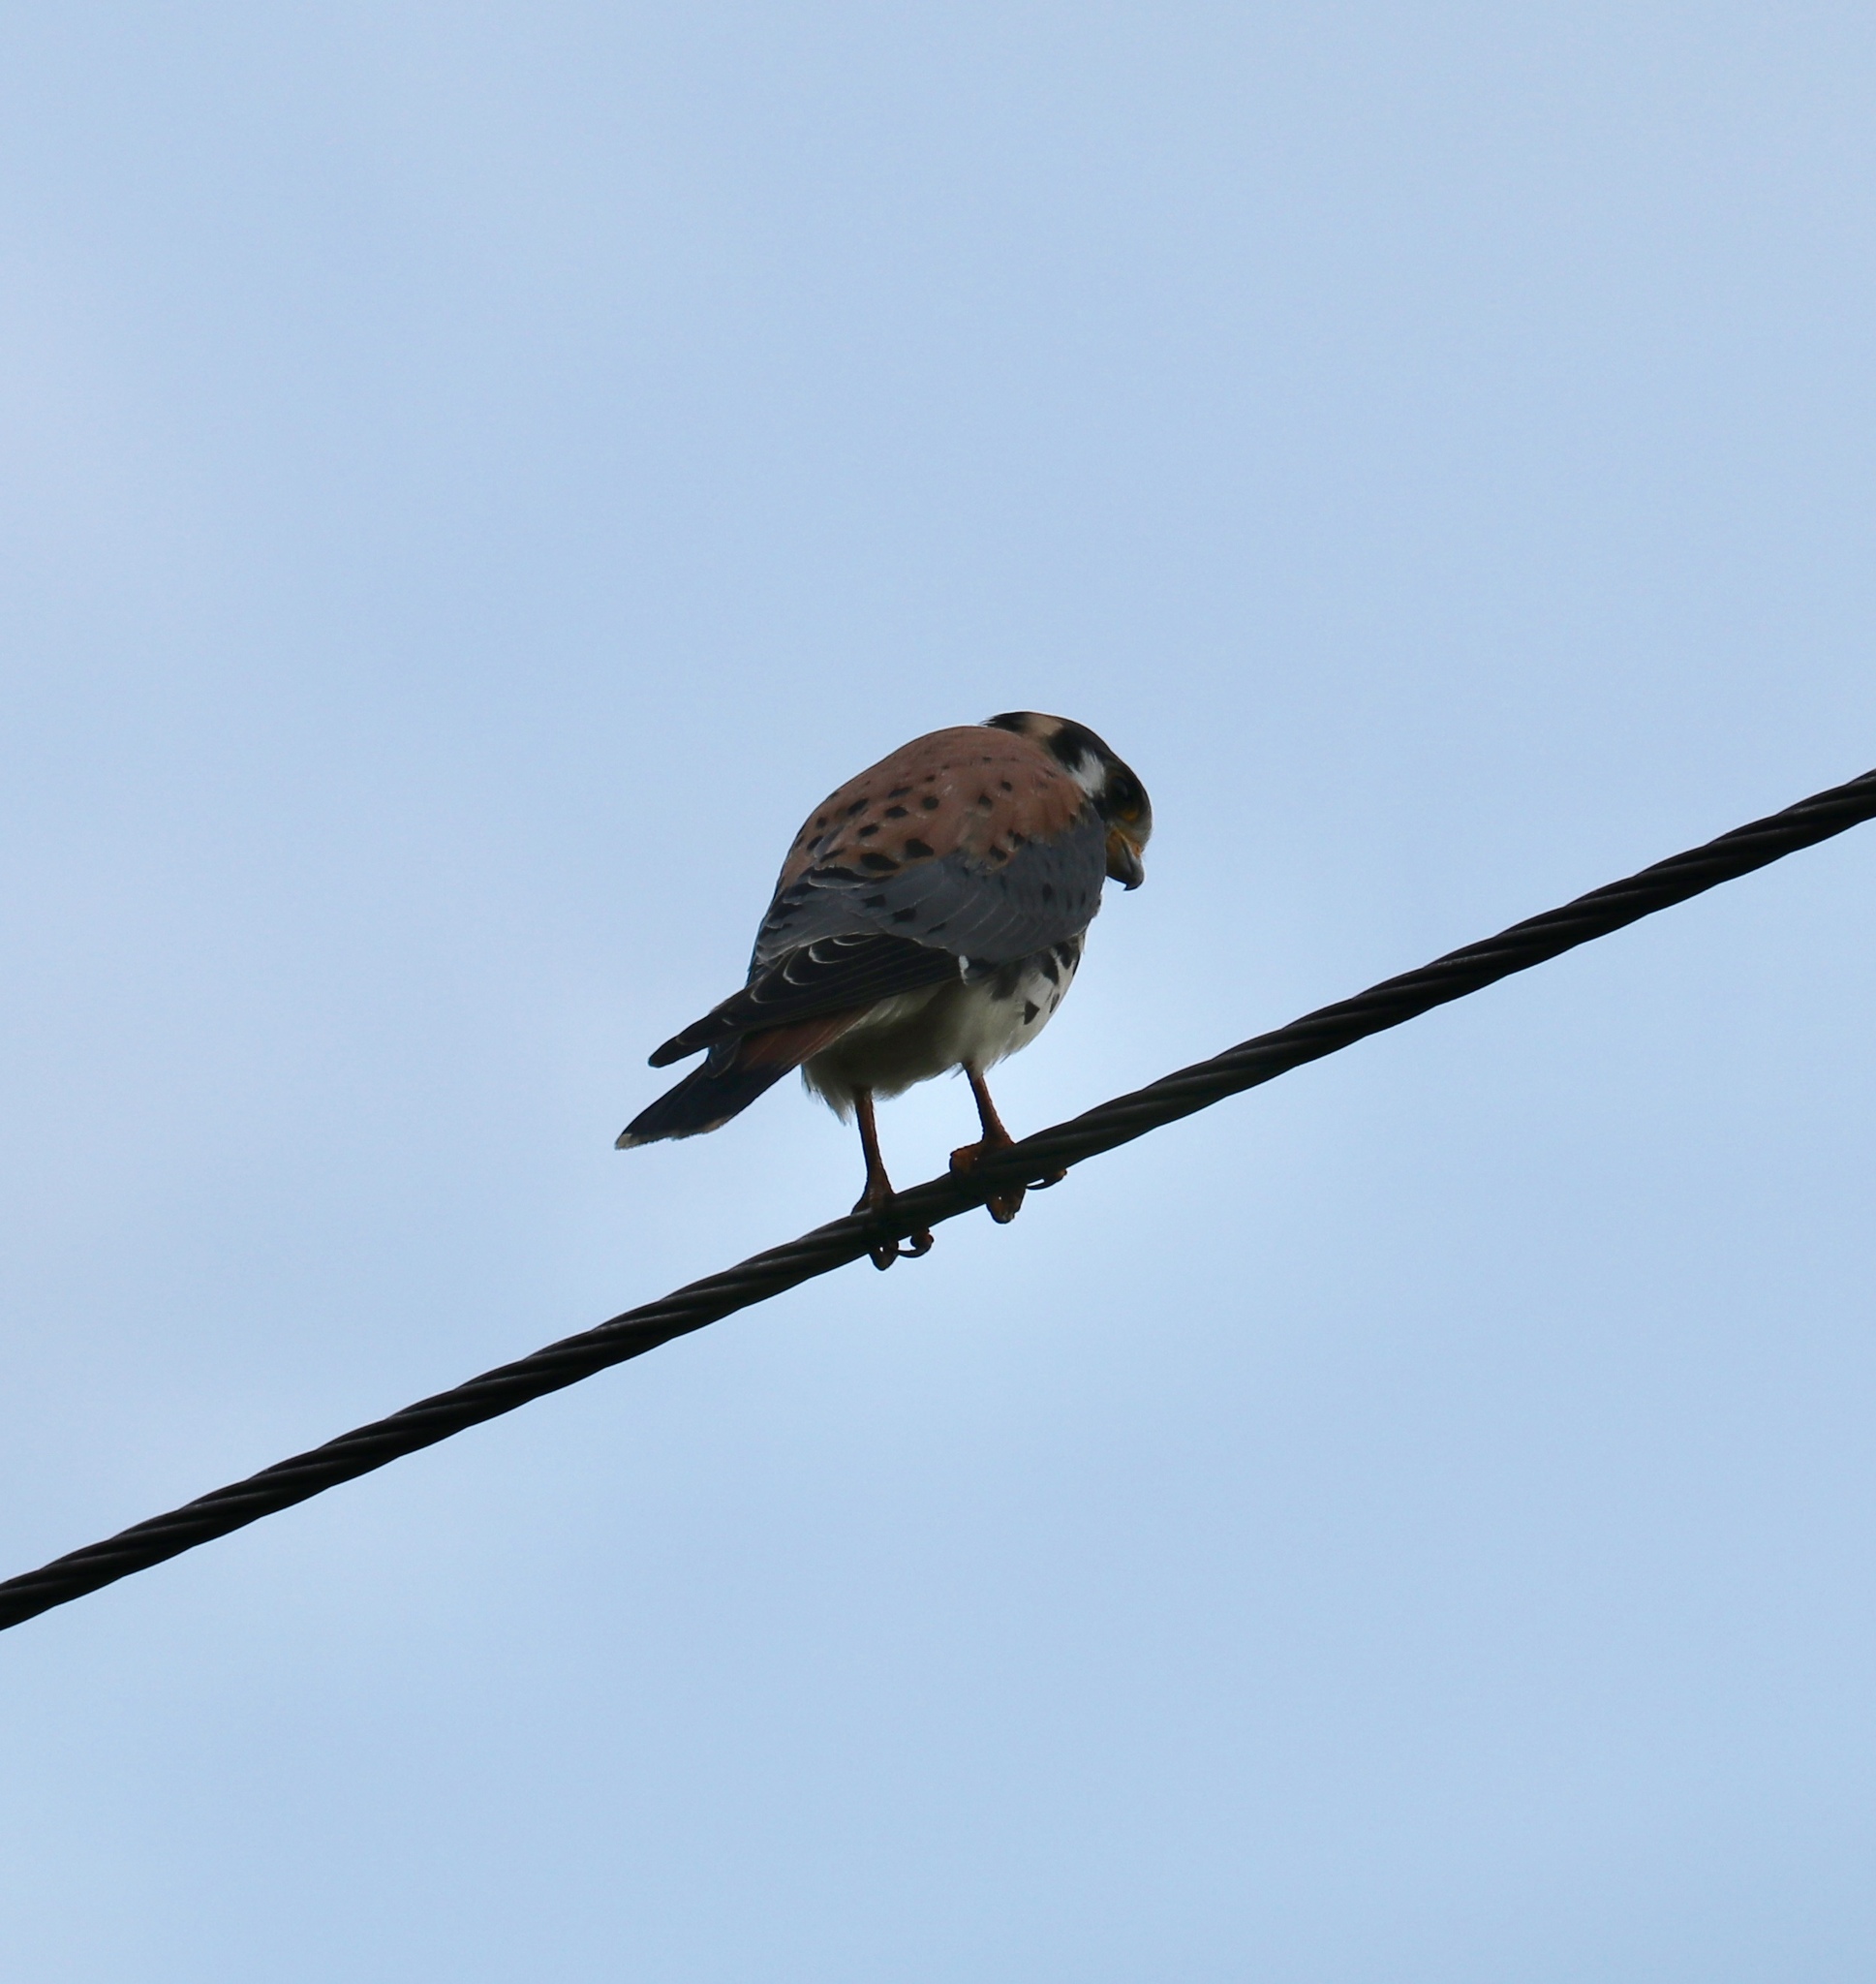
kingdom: Animalia
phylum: Chordata
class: Aves
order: Falconiformes
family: Falconidae
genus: Falco
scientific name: Falco sparverius
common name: American kestrel
